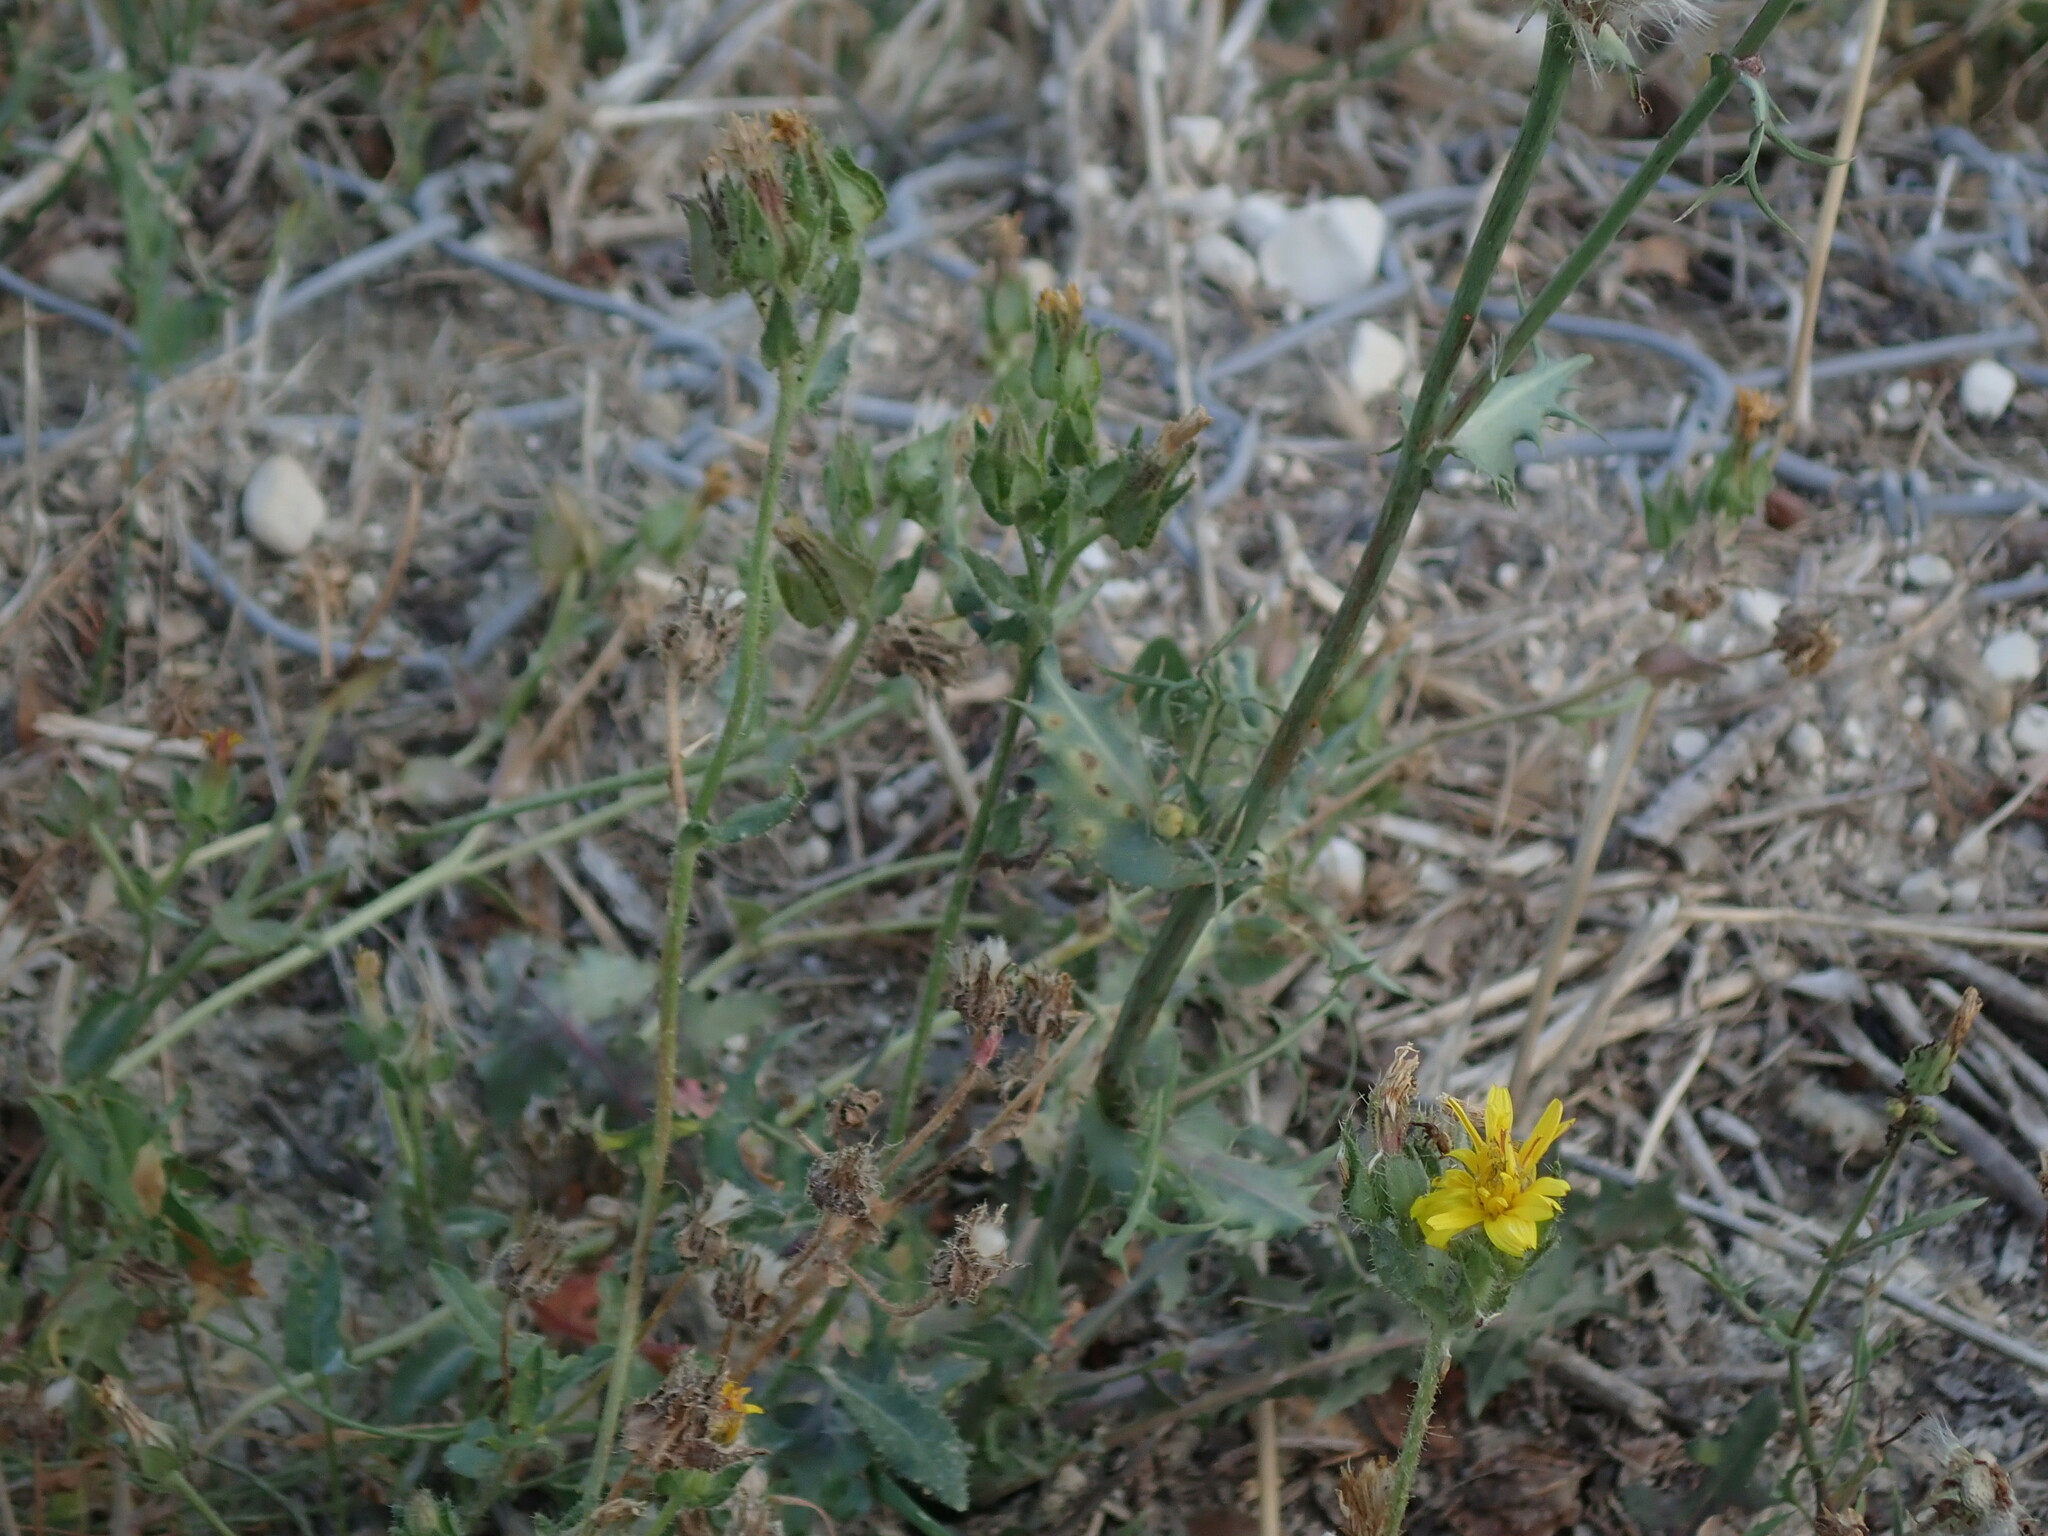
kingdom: Plantae
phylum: Tracheophyta
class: Magnoliopsida
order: Asterales
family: Asteraceae
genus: Helminthotheca
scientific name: Helminthotheca echioides
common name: Ox-tongue
